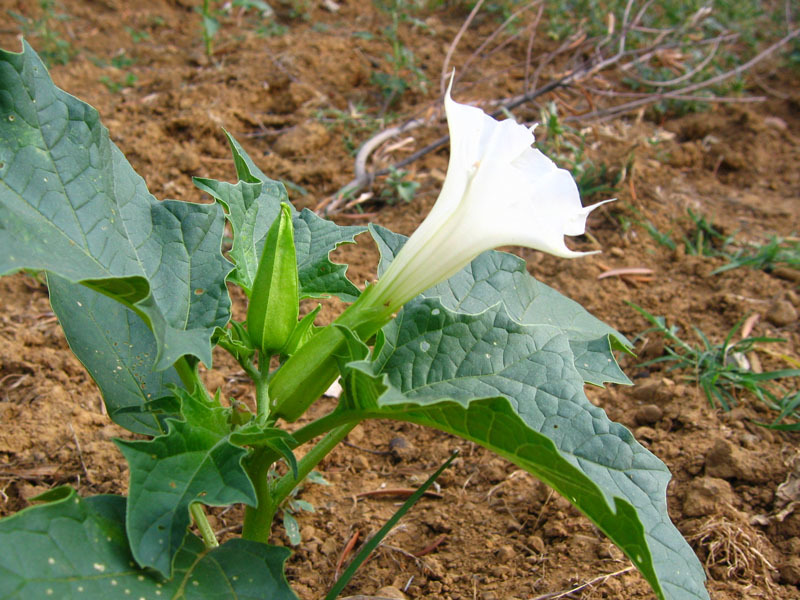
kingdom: Plantae
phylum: Tracheophyta
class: Magnoliopsida
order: Solanales
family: Solanaceae
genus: Datura
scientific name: Datura stramonium
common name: Thorn-apple
